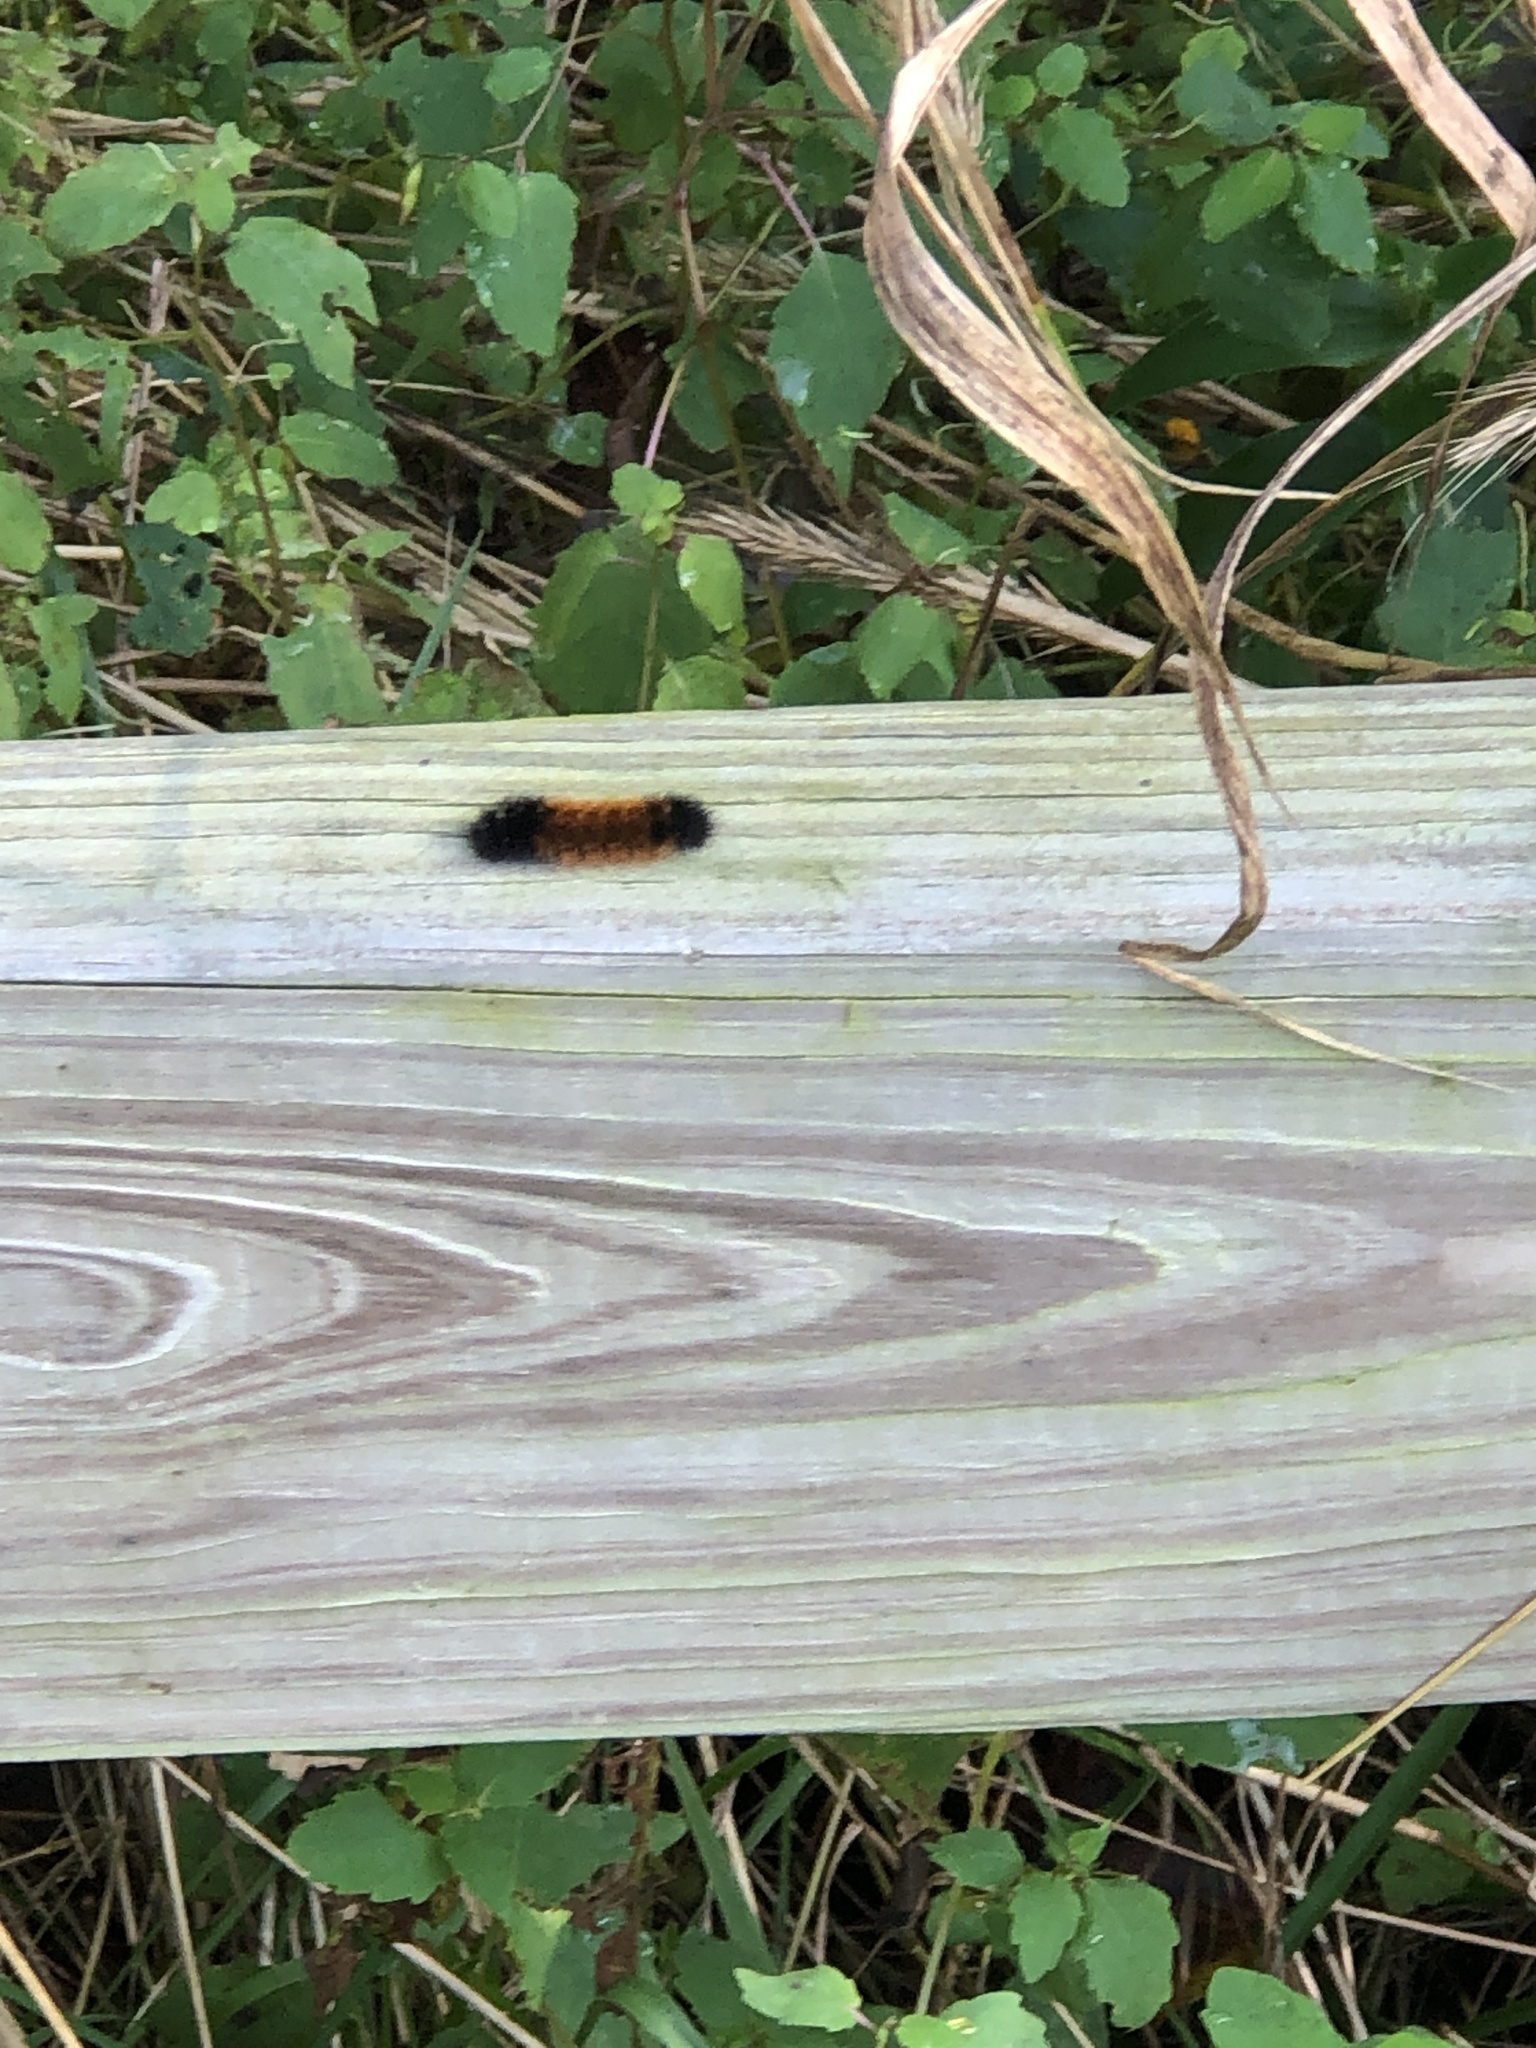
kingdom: Animalia
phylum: Arthropoda
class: Insecta
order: Lepidoptera
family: Erebidae
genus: Pyrrharctia
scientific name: Pyrrharctia isabella
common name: Isabella tiger moth
